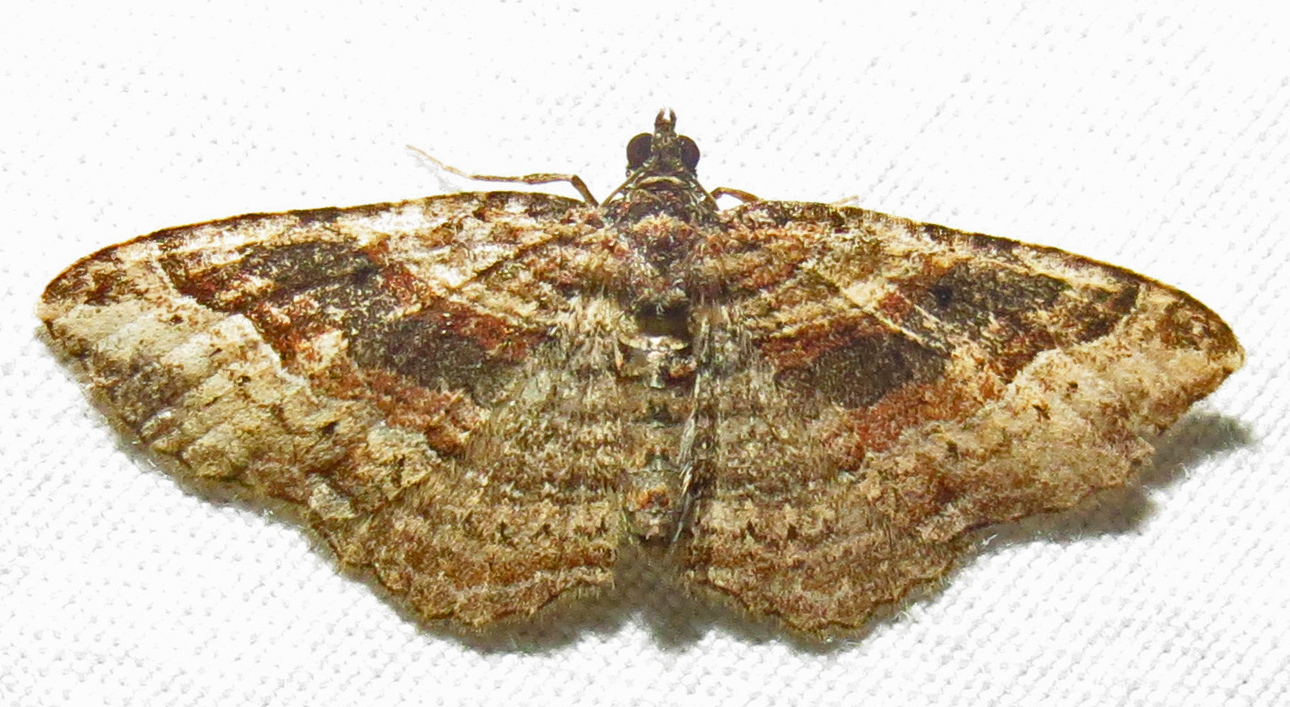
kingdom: Animalia
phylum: Arthropoda
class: Insecta
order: Lepidoptera
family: Geometridae
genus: Costaconvexa
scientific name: Costaconvexa centrostrigaria
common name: Bent-line carpet
